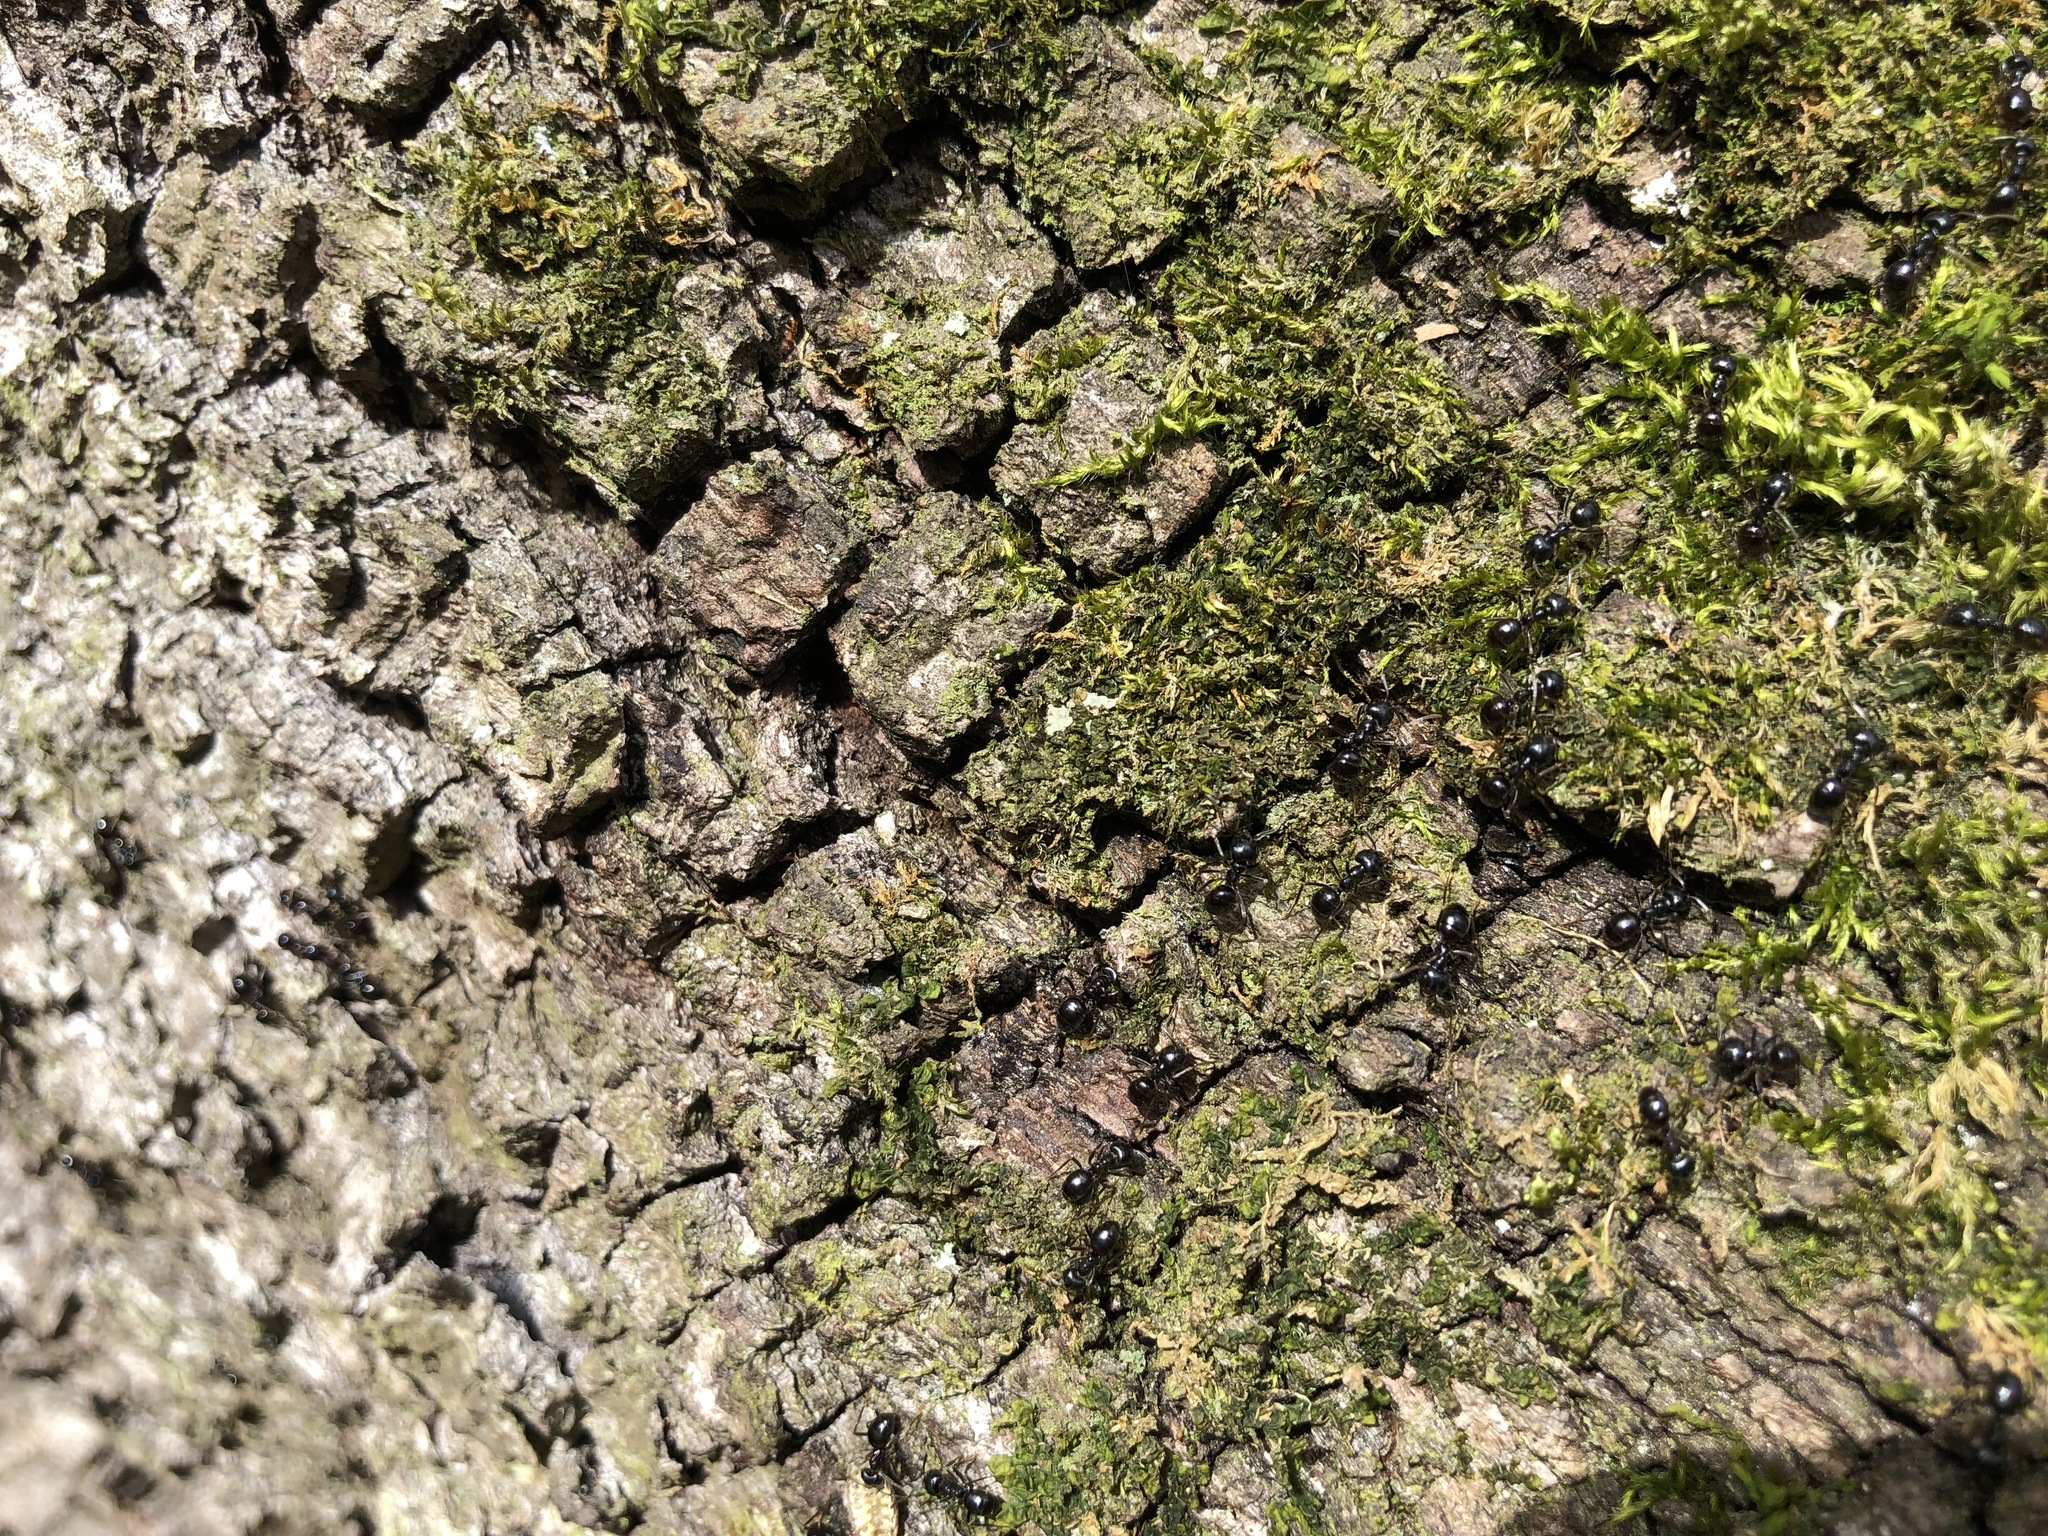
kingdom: Animalia
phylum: Arthropoda
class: Insecta
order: Hymenoptera
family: Formicidae
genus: Lasius
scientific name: Lasius fuliginosus
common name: Jet ant
